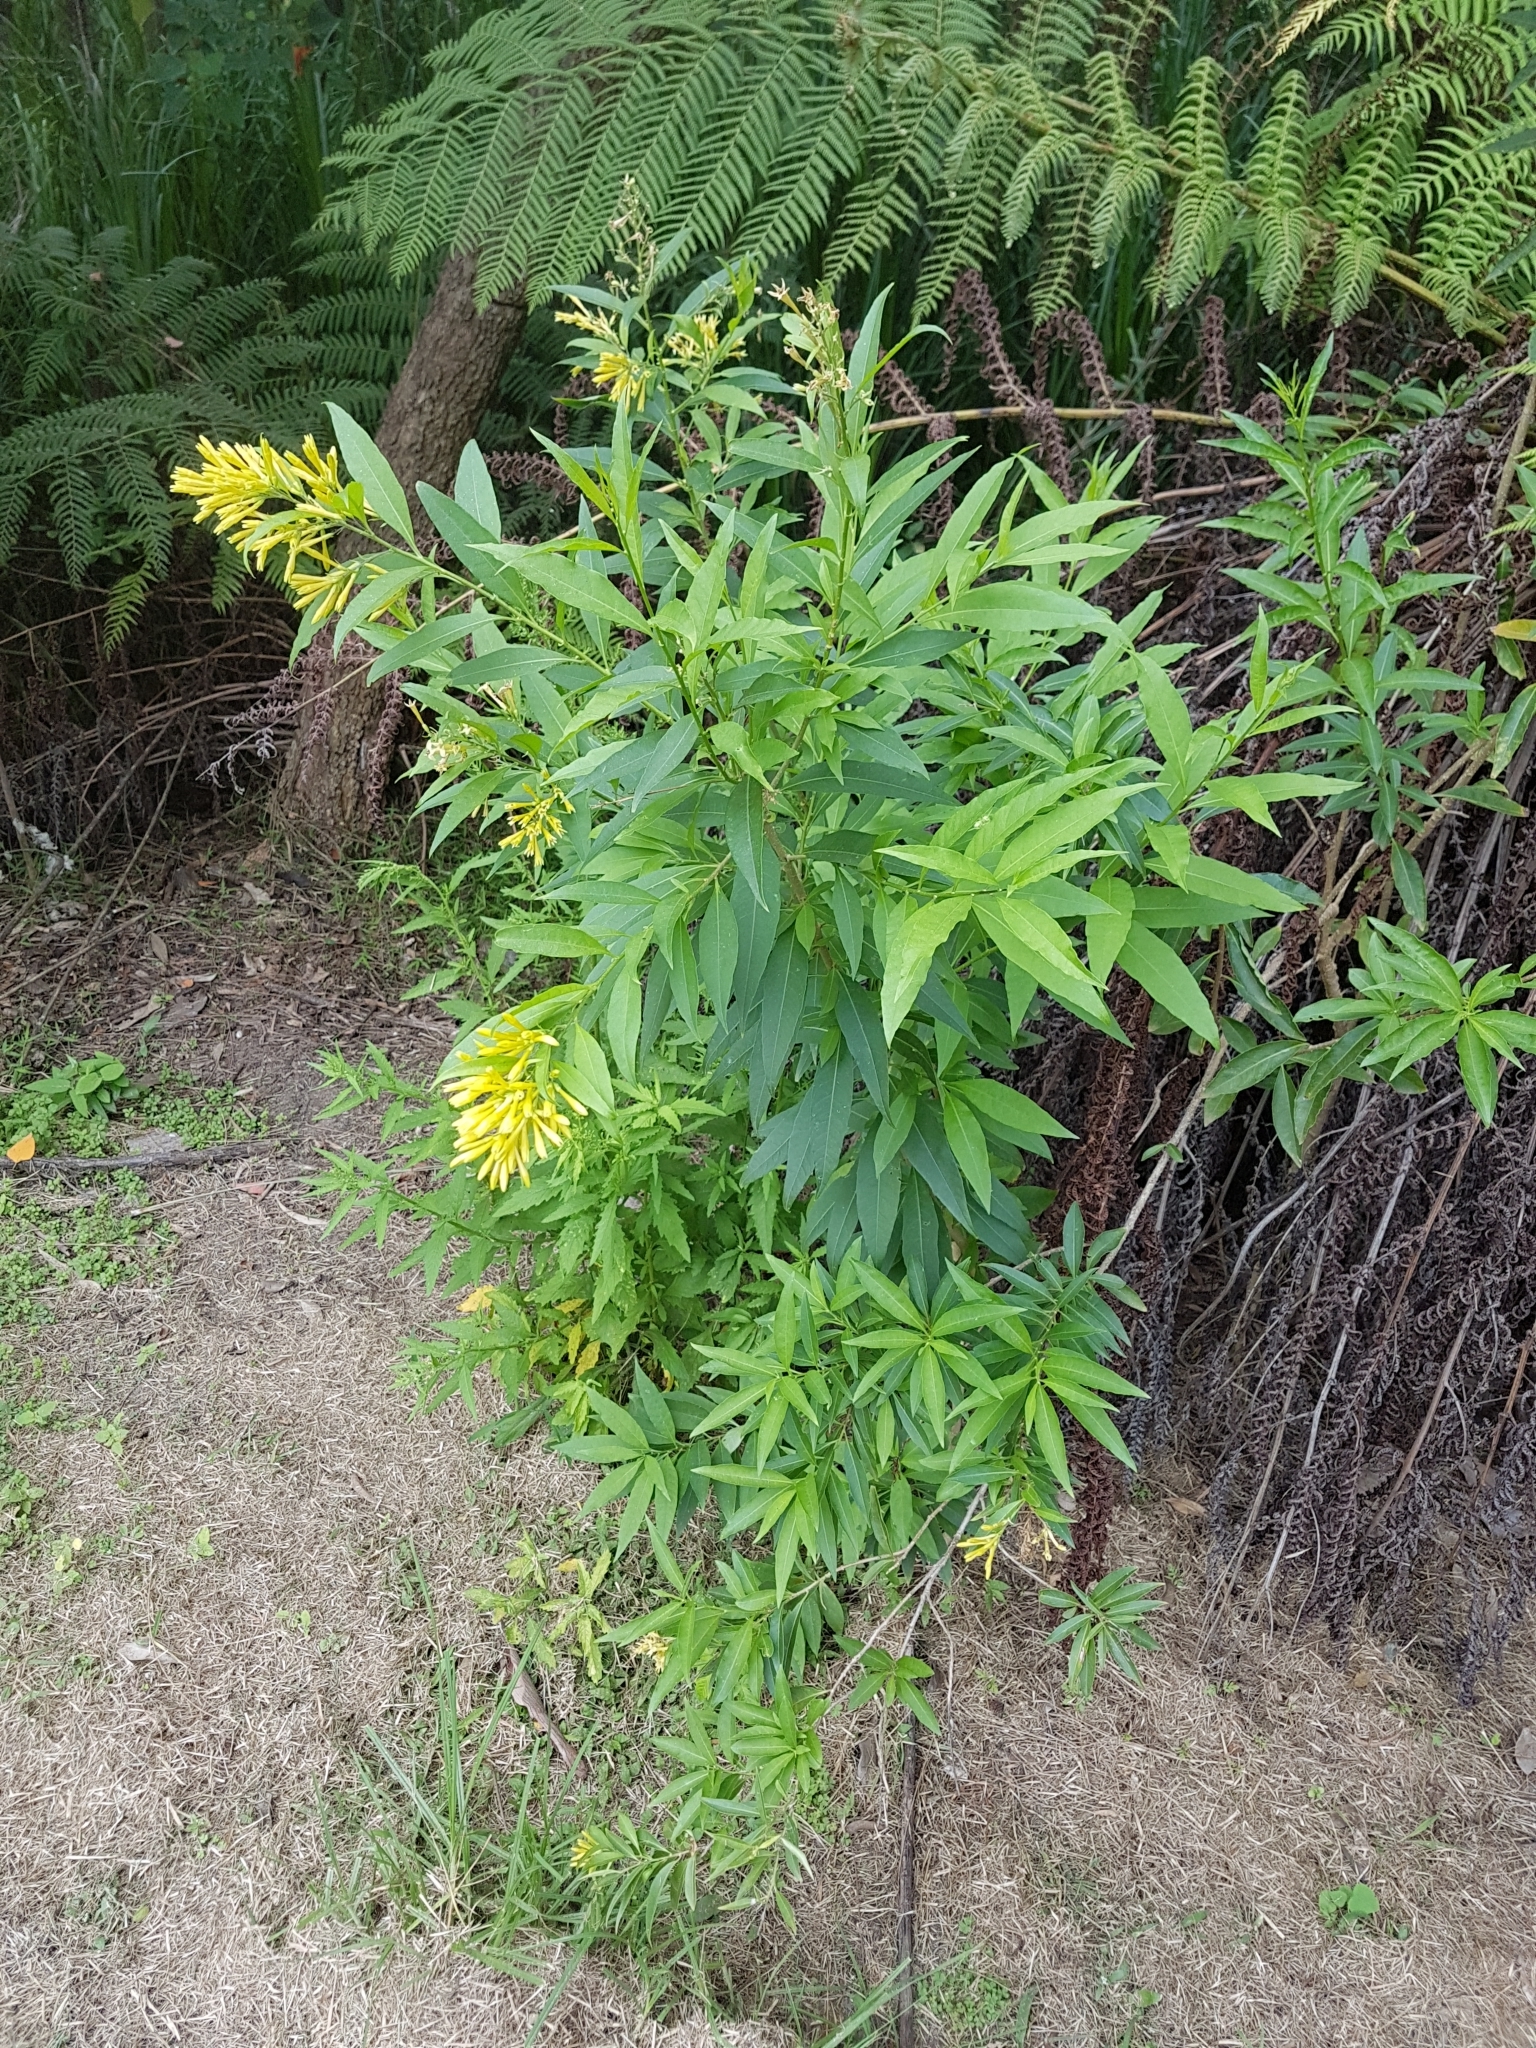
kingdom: Plantae
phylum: Tracheophyta
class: Magnoliopsida
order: Solanales
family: Solanaceae
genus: Cestrum
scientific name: Cestrum parqui
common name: Chilean cestrum
